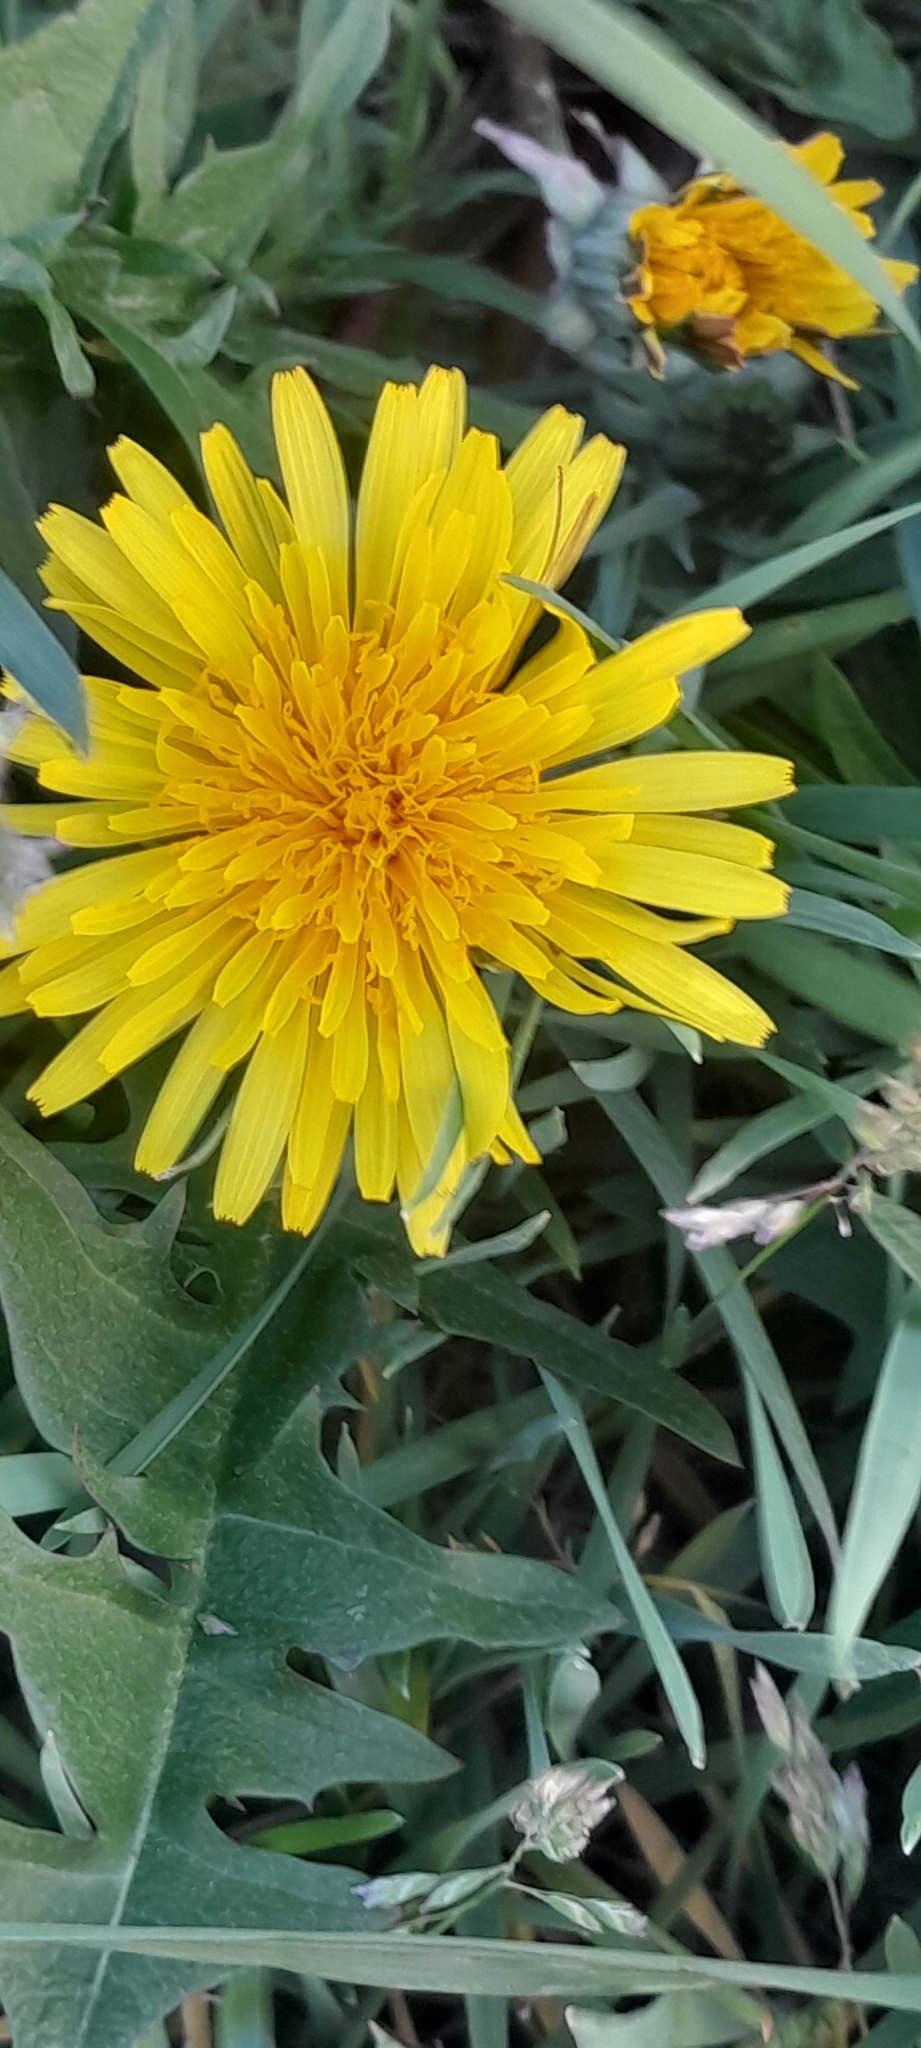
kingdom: Plantae
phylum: Tracheophyta
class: Magnoliopsida
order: Asterales
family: Asteraceae
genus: Taraxacum
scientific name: Taraxacum officinale
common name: Common dandelion
